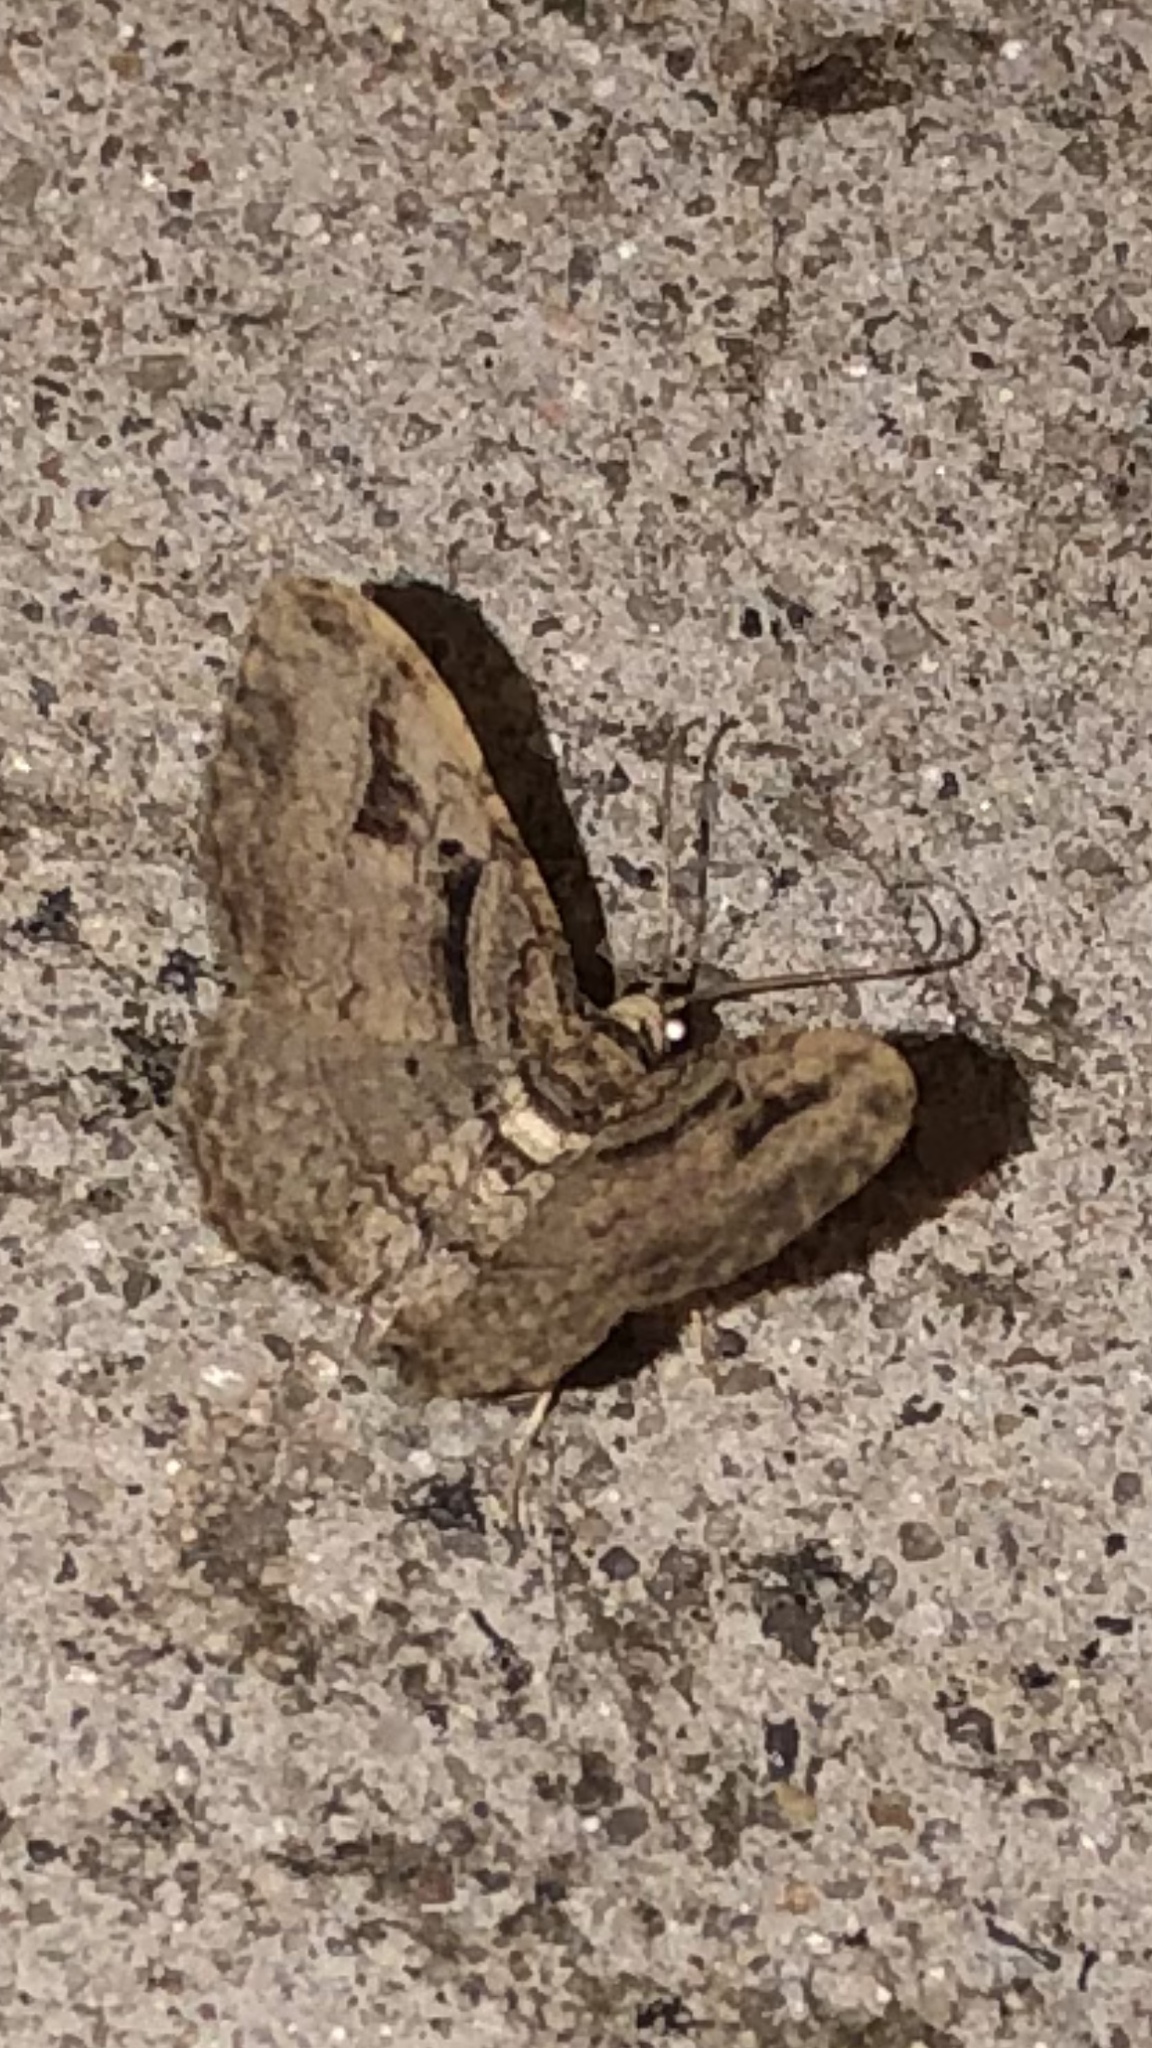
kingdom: Animalia
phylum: Arthropoda
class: Insecta
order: Lepidoptera
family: Geometridae
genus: Costaconvexa
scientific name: Costaconvexa centrostrigaria
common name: Bent-line carpet
